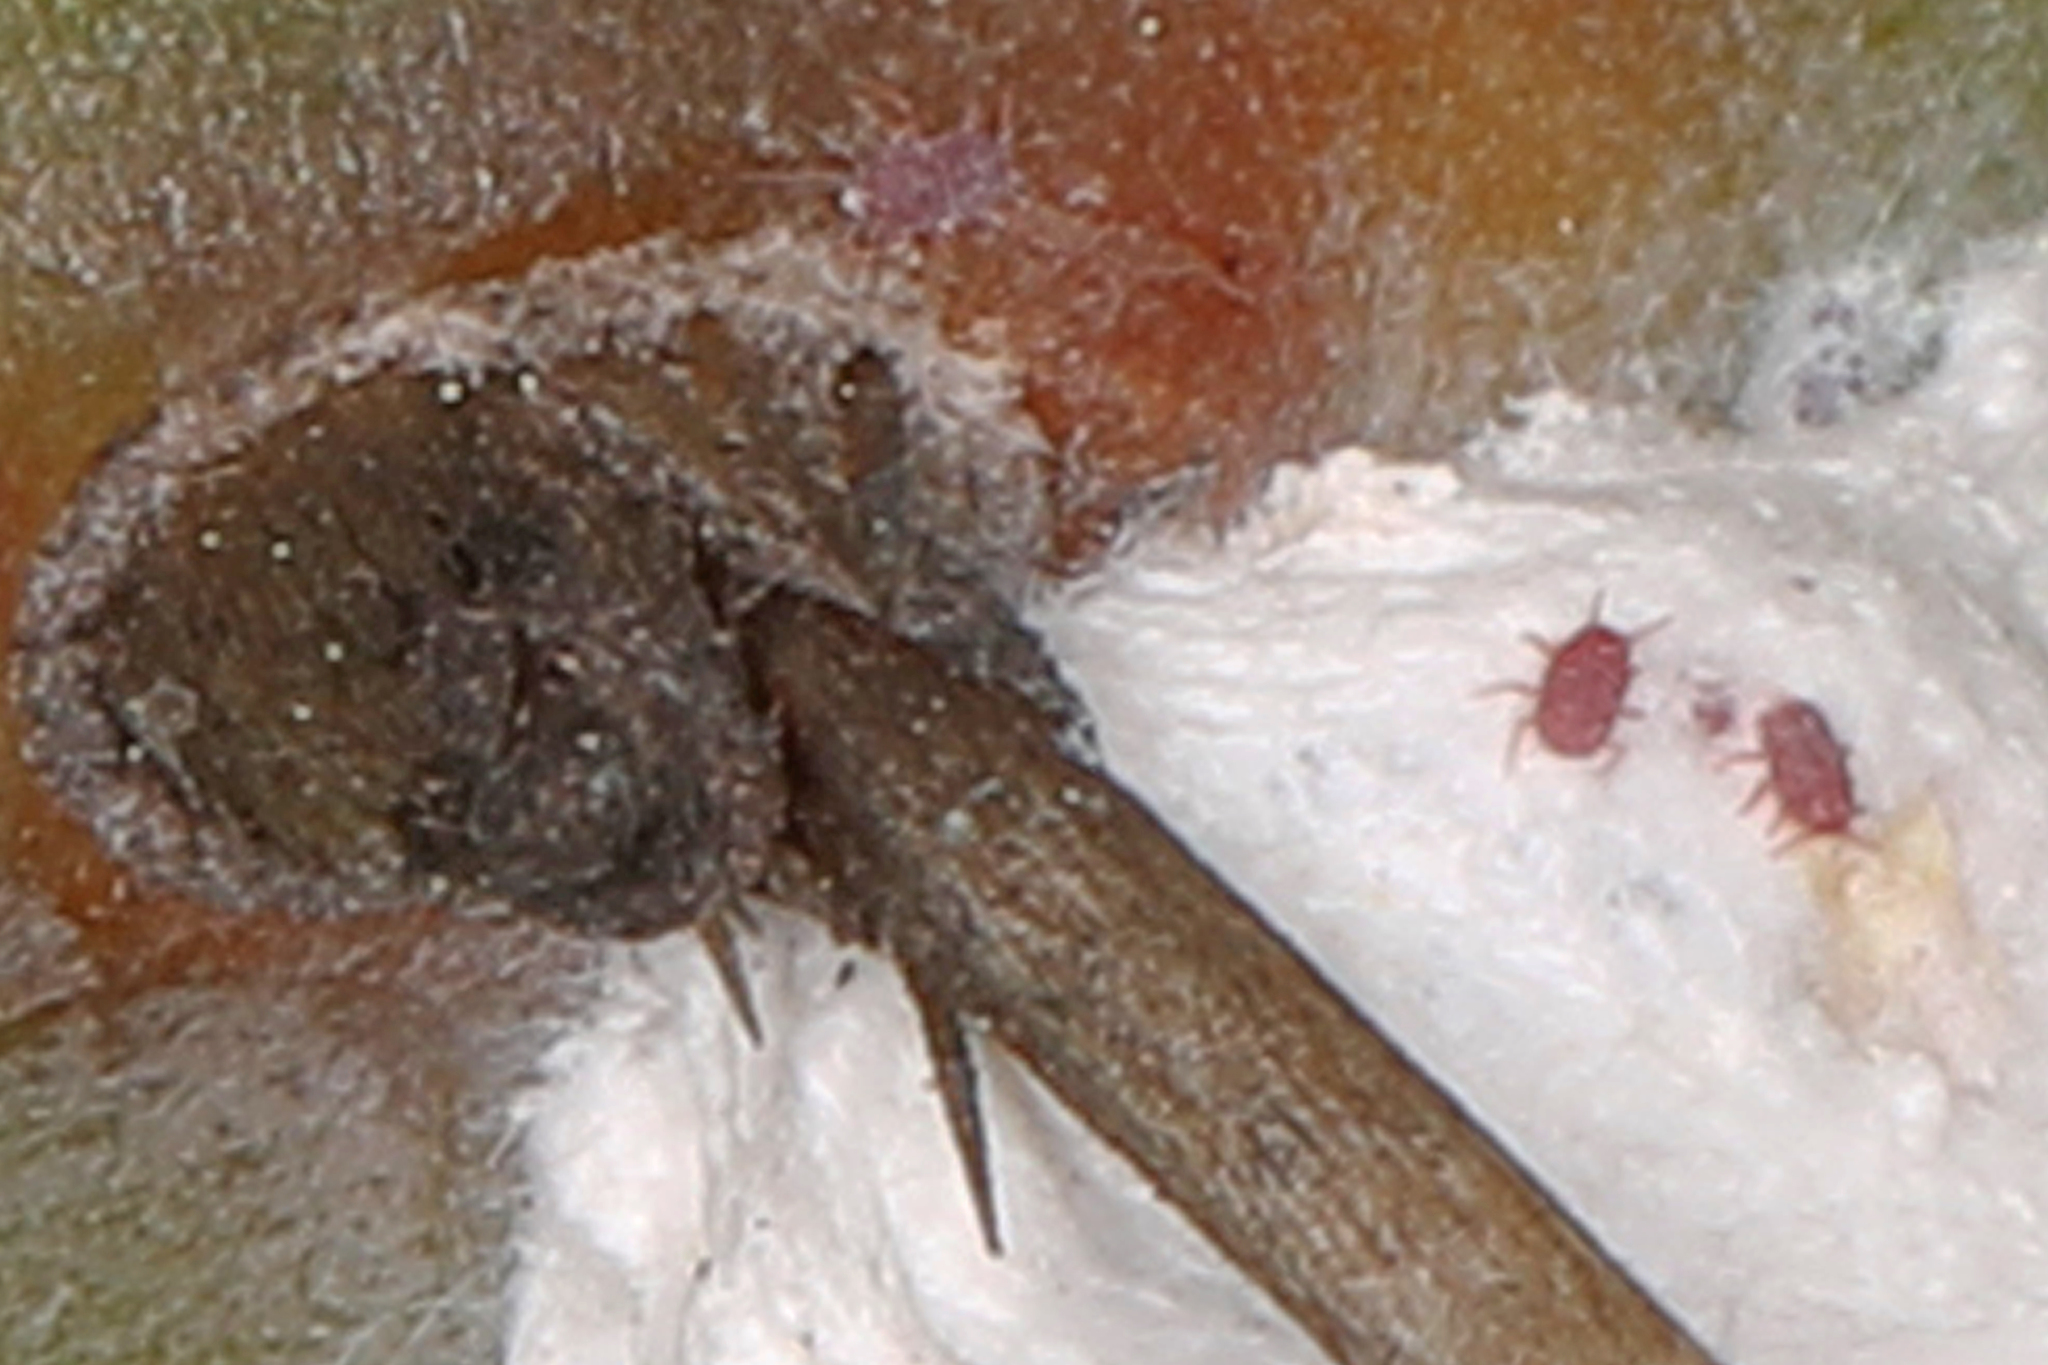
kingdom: Animalia
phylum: Arthropoda
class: Insecta
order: Hemiptera
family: Dactylopiidae
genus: Dactylopius
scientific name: Dactylopius confusus
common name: California cochineal scale
